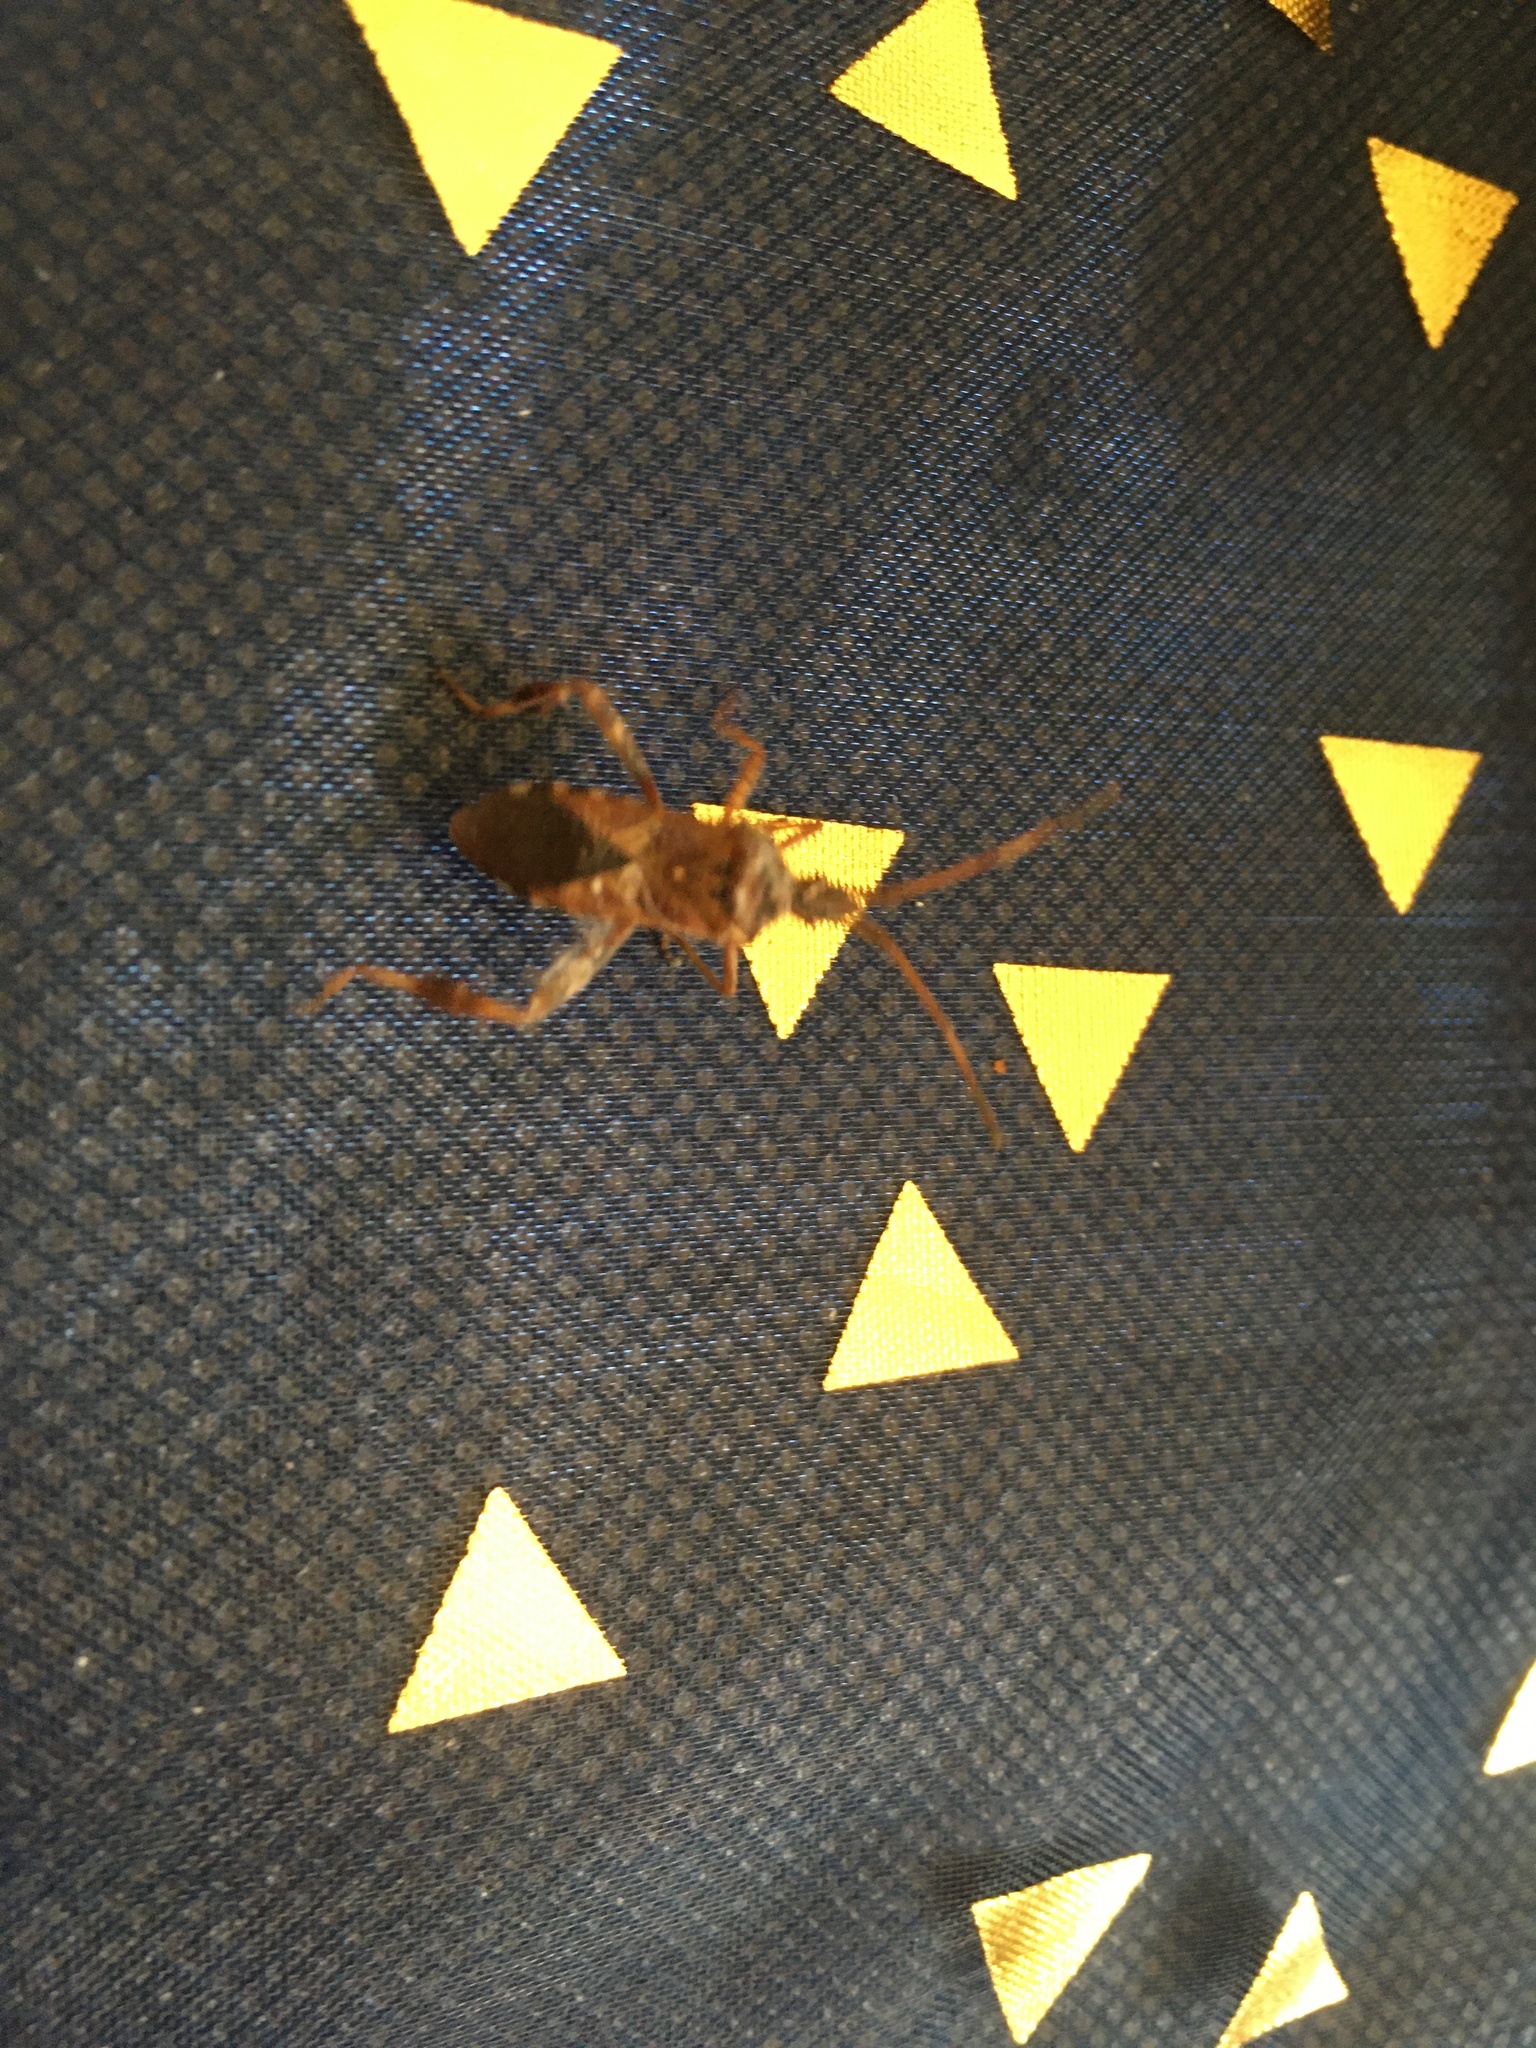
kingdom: Animalia
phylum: Arthropoda
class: Insecta
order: Hemiptera
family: Coreidae
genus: Leptoglossus
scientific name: Leptoglossus occidentalis
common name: Western conifer-seed bug
